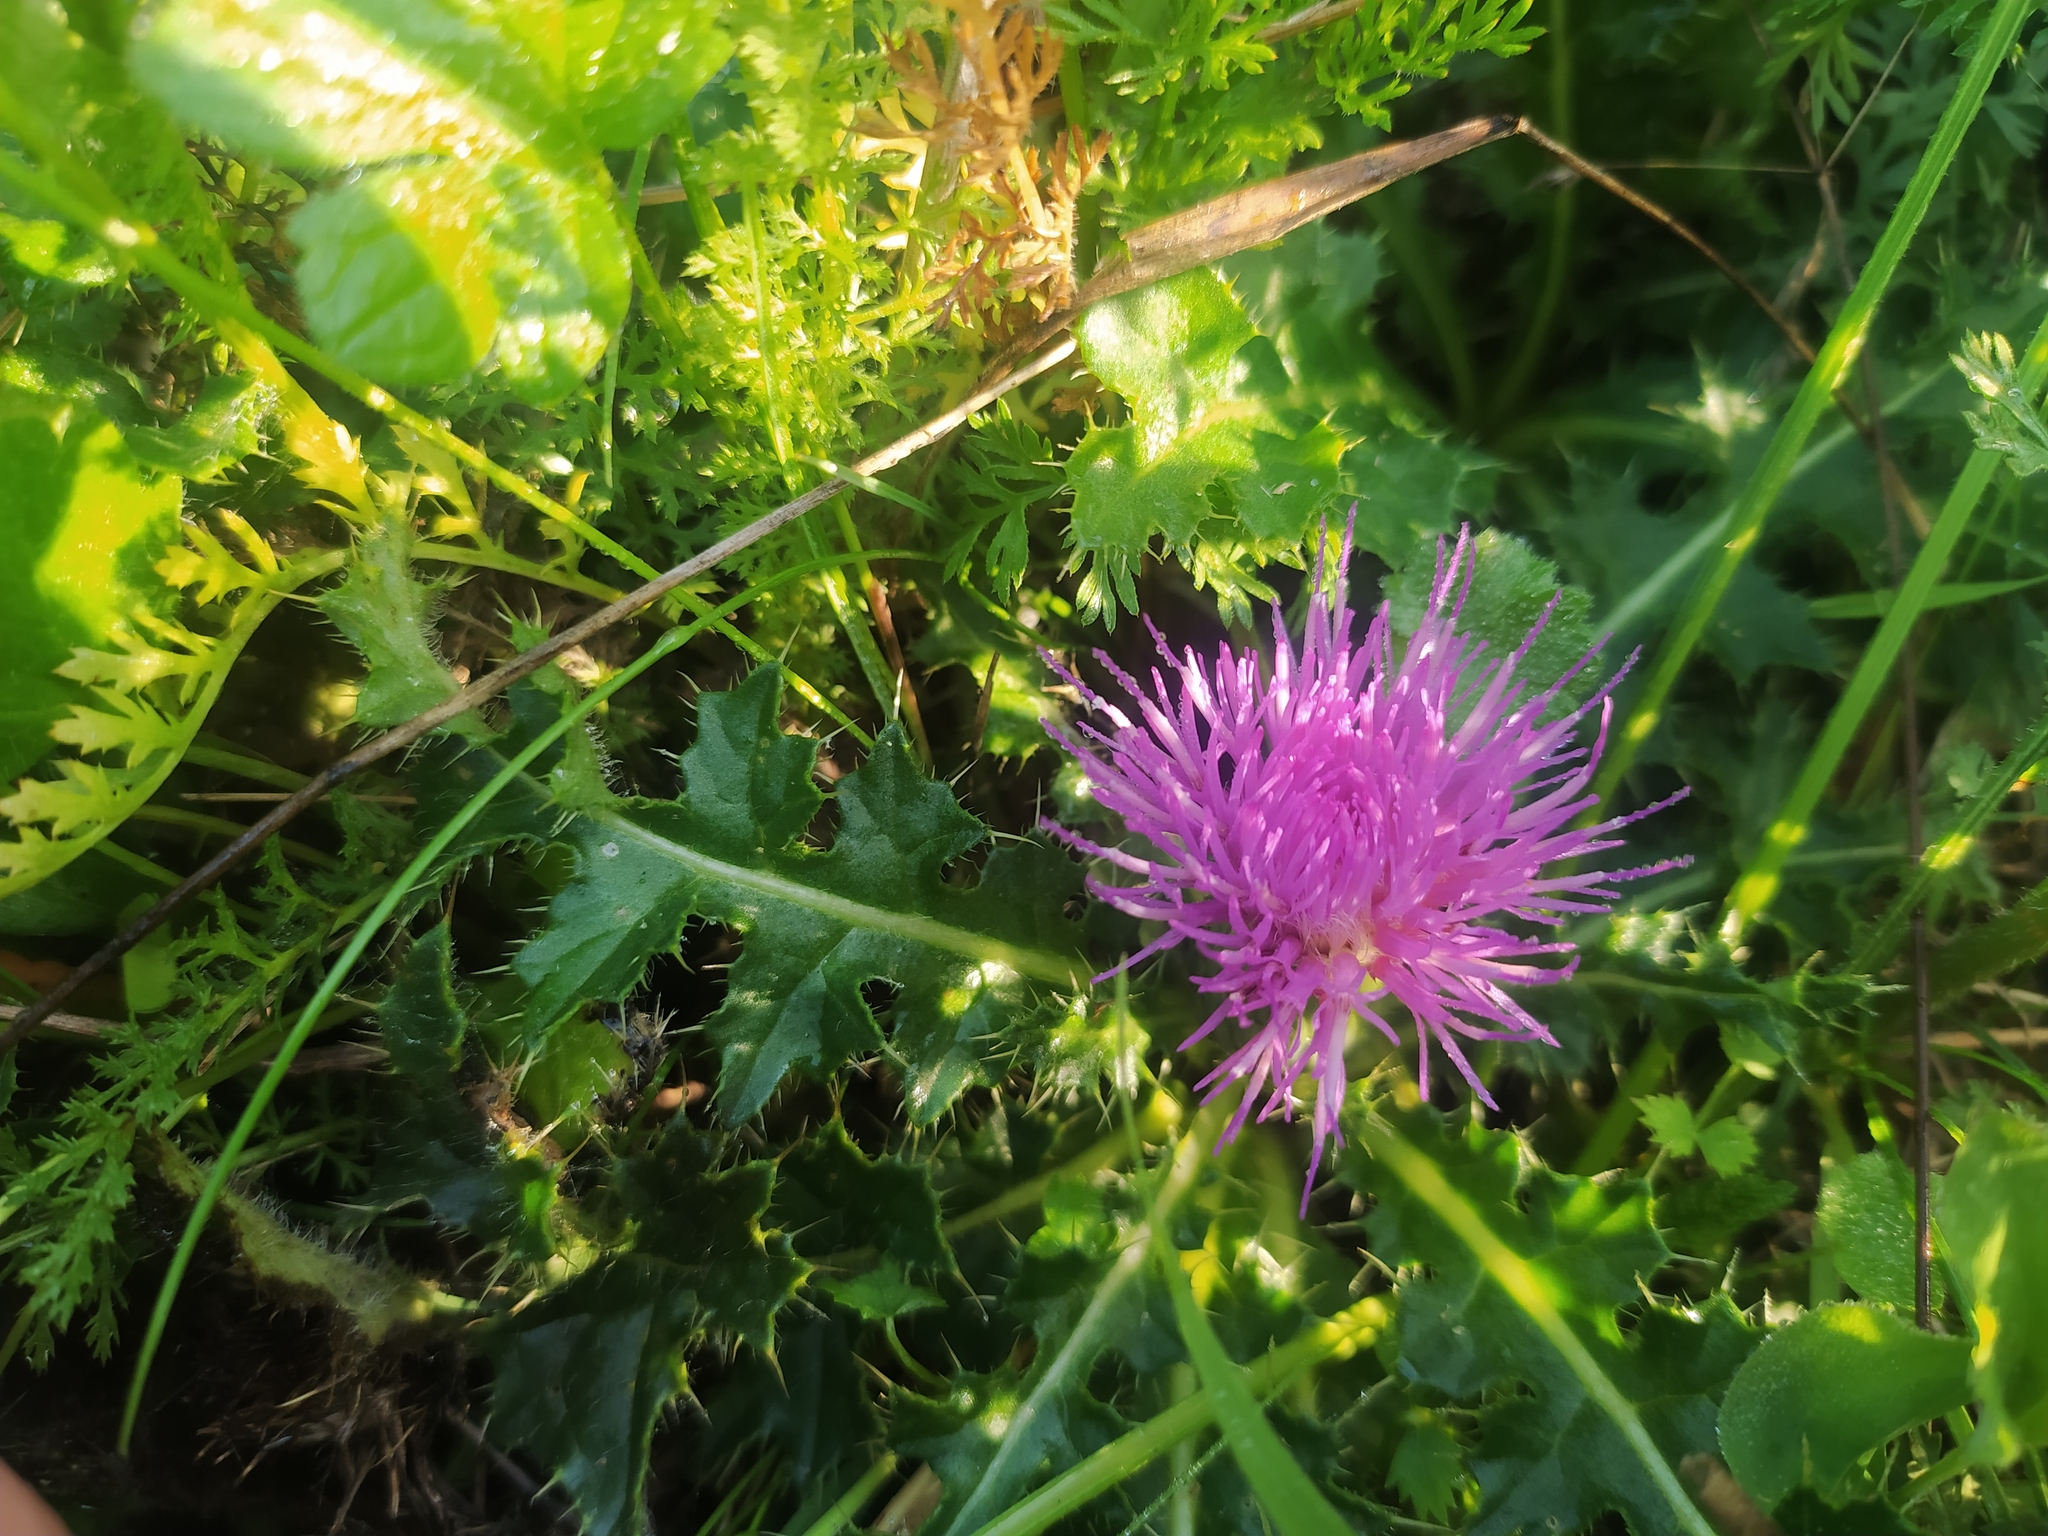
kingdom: Plantae
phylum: Tracheophyta
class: Magnoliopsida
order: Asterales
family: Asteraceae
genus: Cirsium
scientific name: Cirsium acaulon
